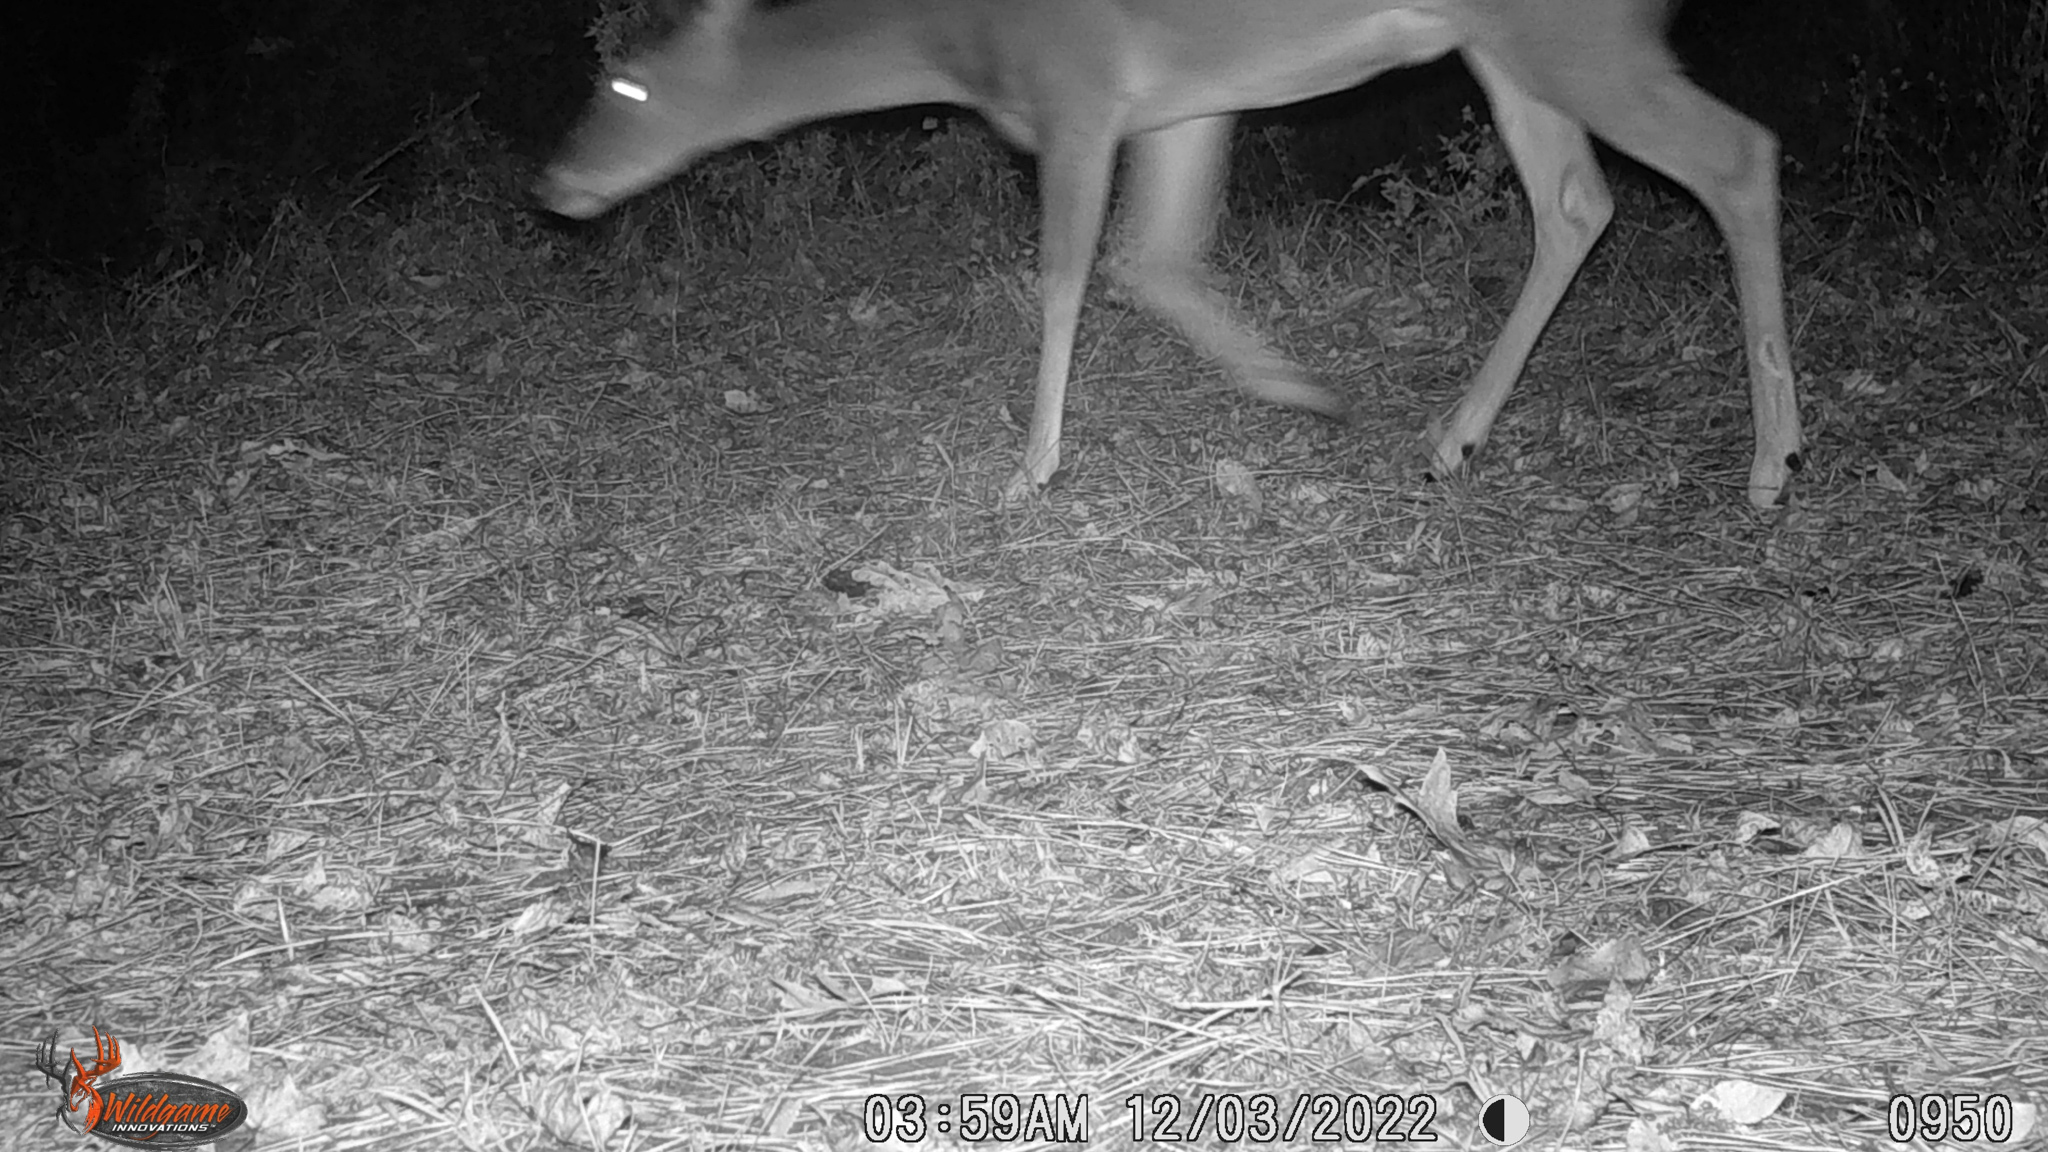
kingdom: Animalia
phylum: Chordata
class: Mammalia
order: Artiodactyla
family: Cervidae
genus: Odocoileus
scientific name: Odocoileus virginianus
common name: White-tailed deer
